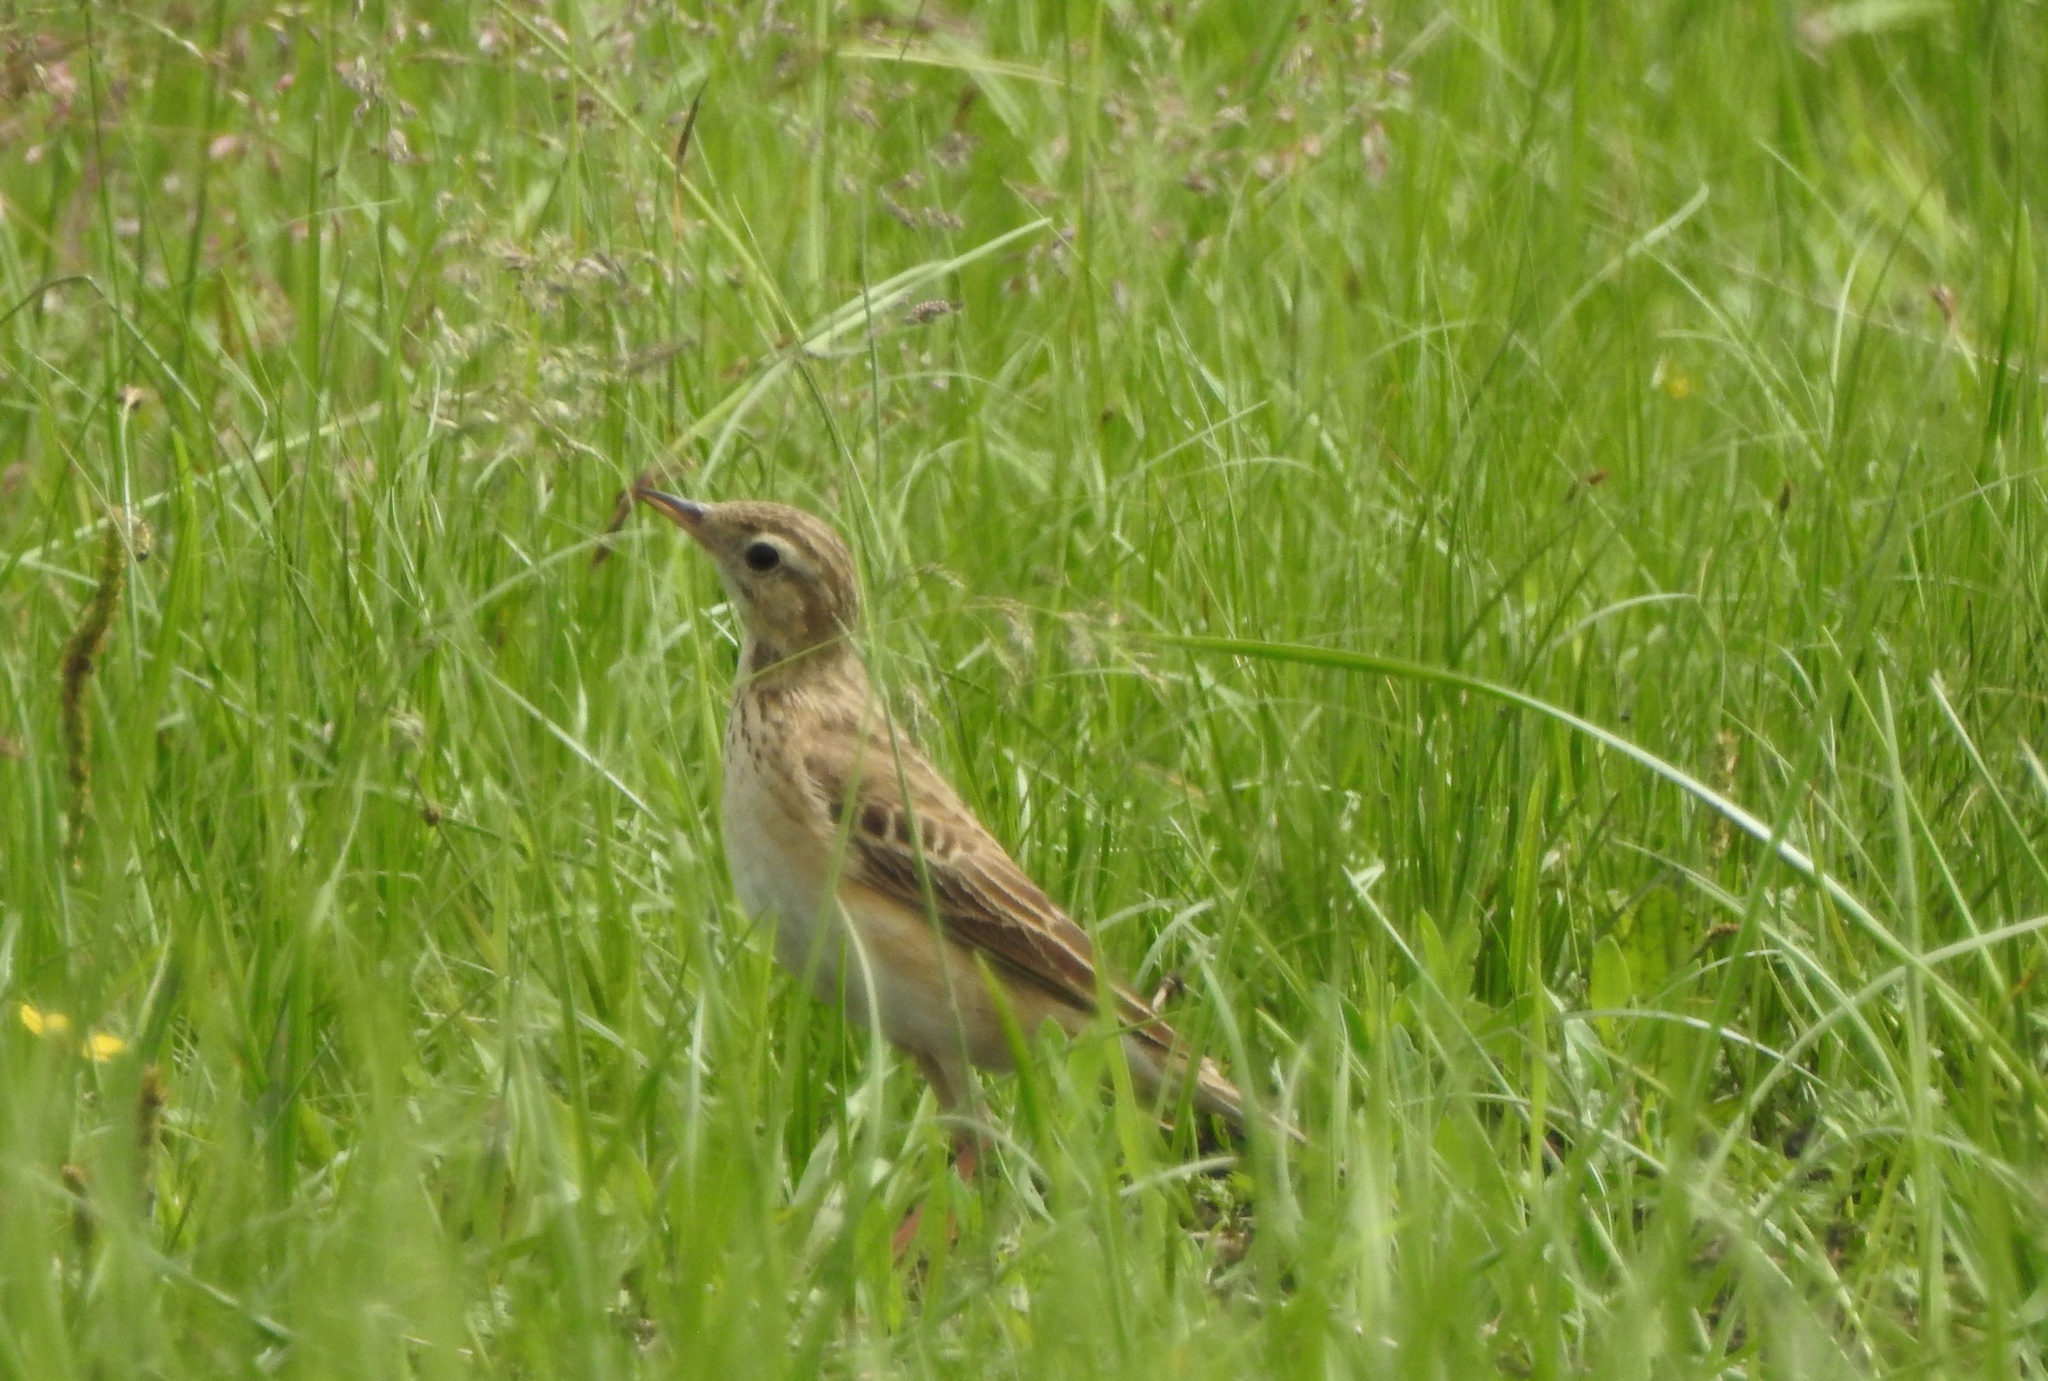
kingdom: Animalia
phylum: Chordata
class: Aves
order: Passeriformes
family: Motacillidae
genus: Anthus
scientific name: Anthus richardi
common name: Richard's pipit
